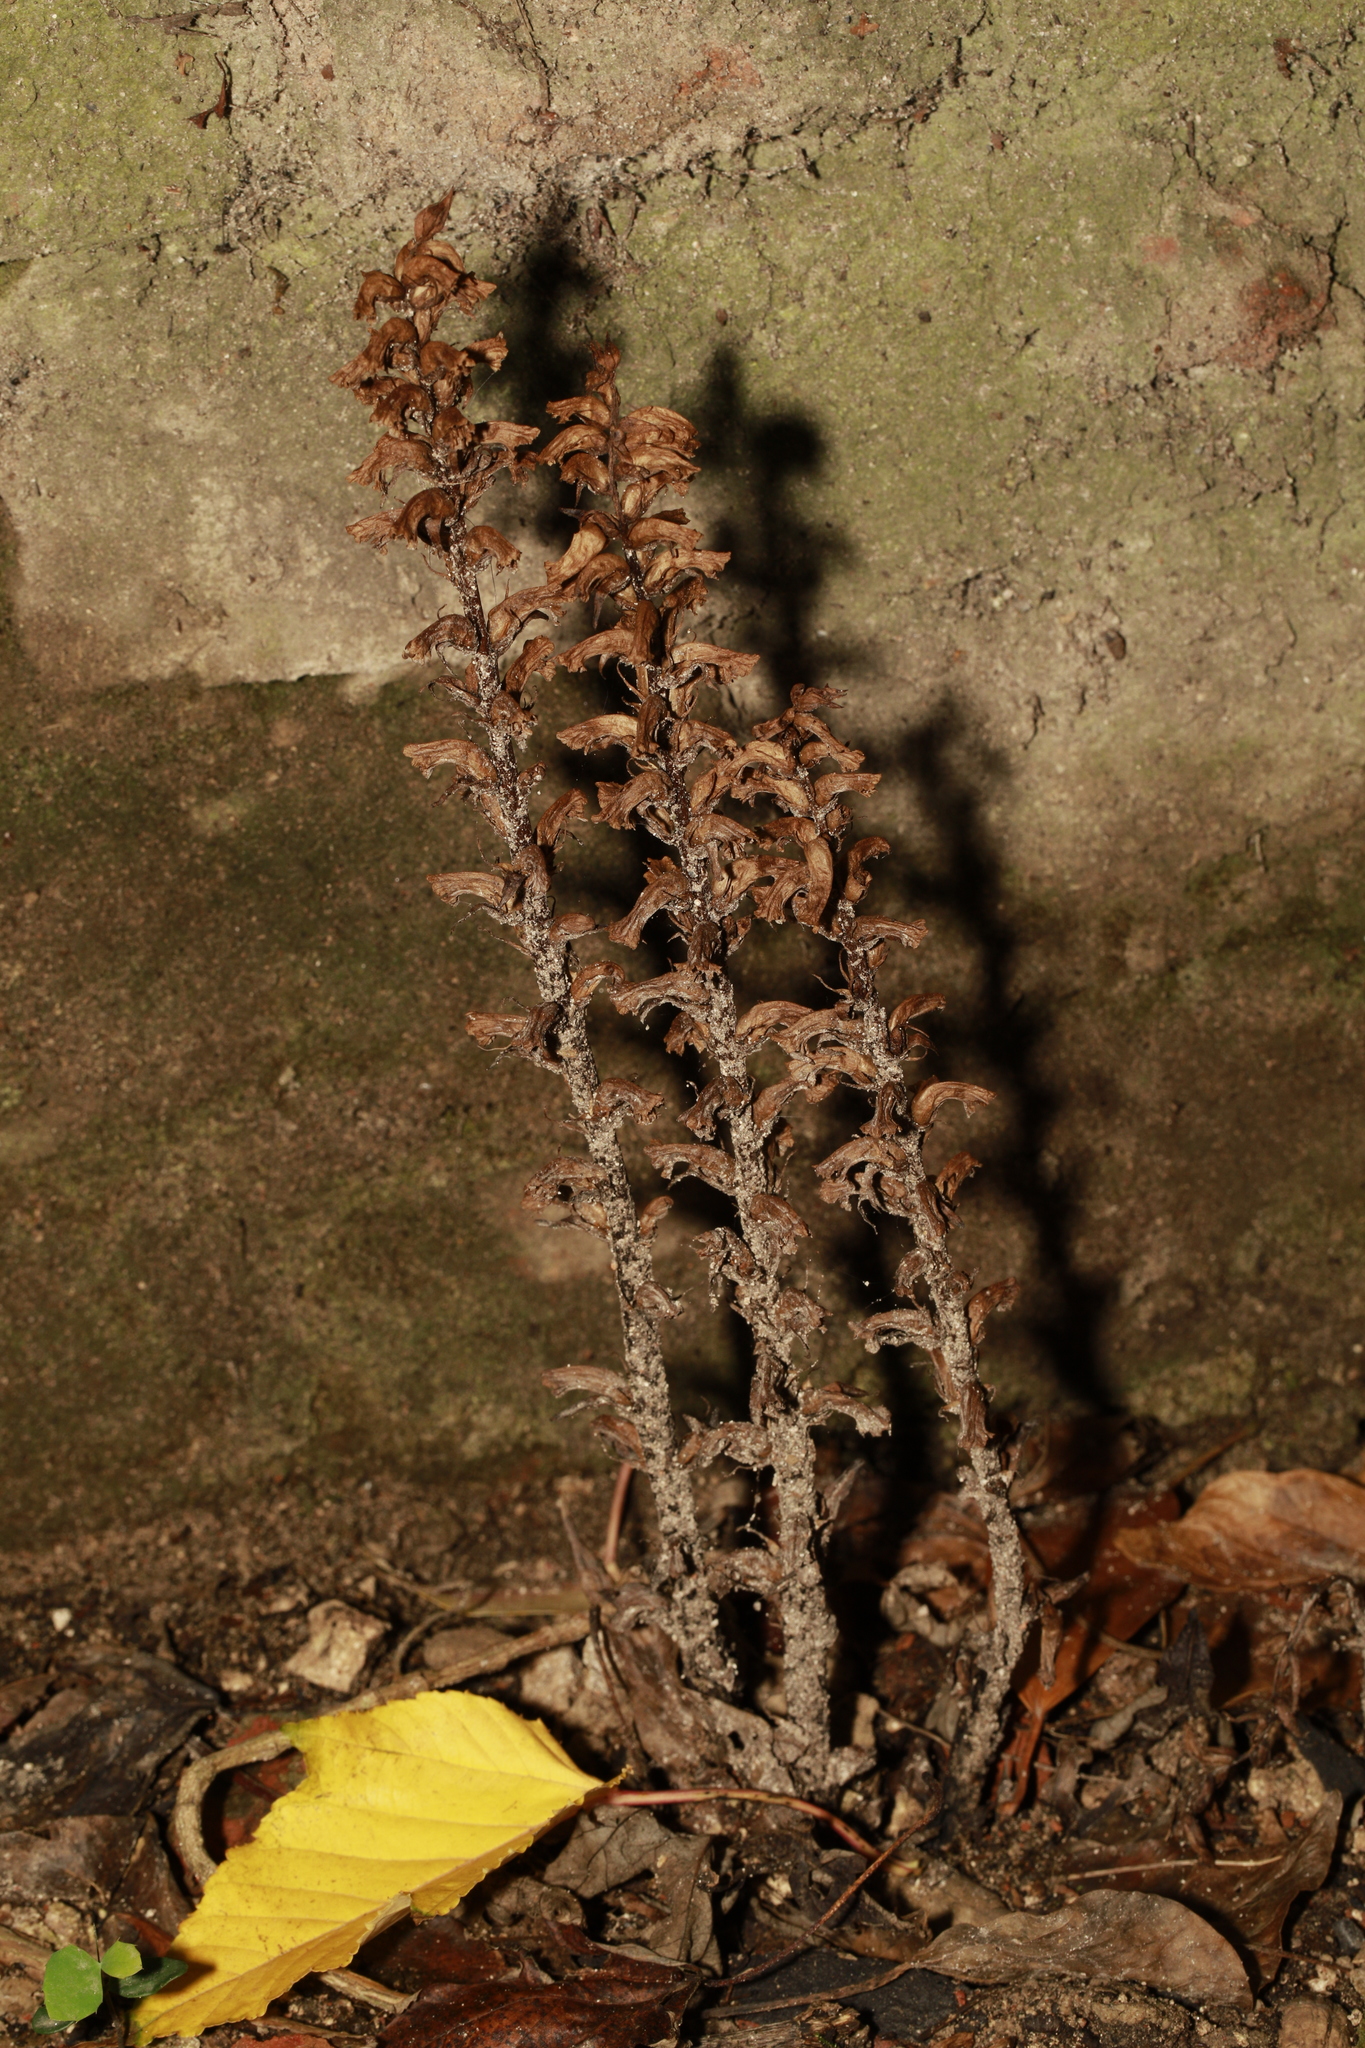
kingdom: Plantae
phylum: Tracheophyta
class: Magnoliopsida
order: Lamiales
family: Orobanchaceae
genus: Orobanche
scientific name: Orobanche hederae
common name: Ivy broomrape
